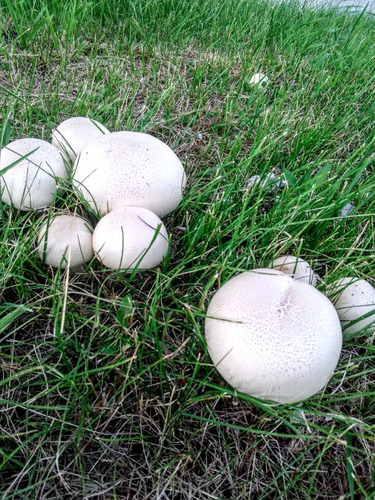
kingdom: Fungi
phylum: Basidiomycota
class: Agaricomycetes
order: Agaricales
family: Agaricaceae
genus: Agaricus
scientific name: Agaricus
